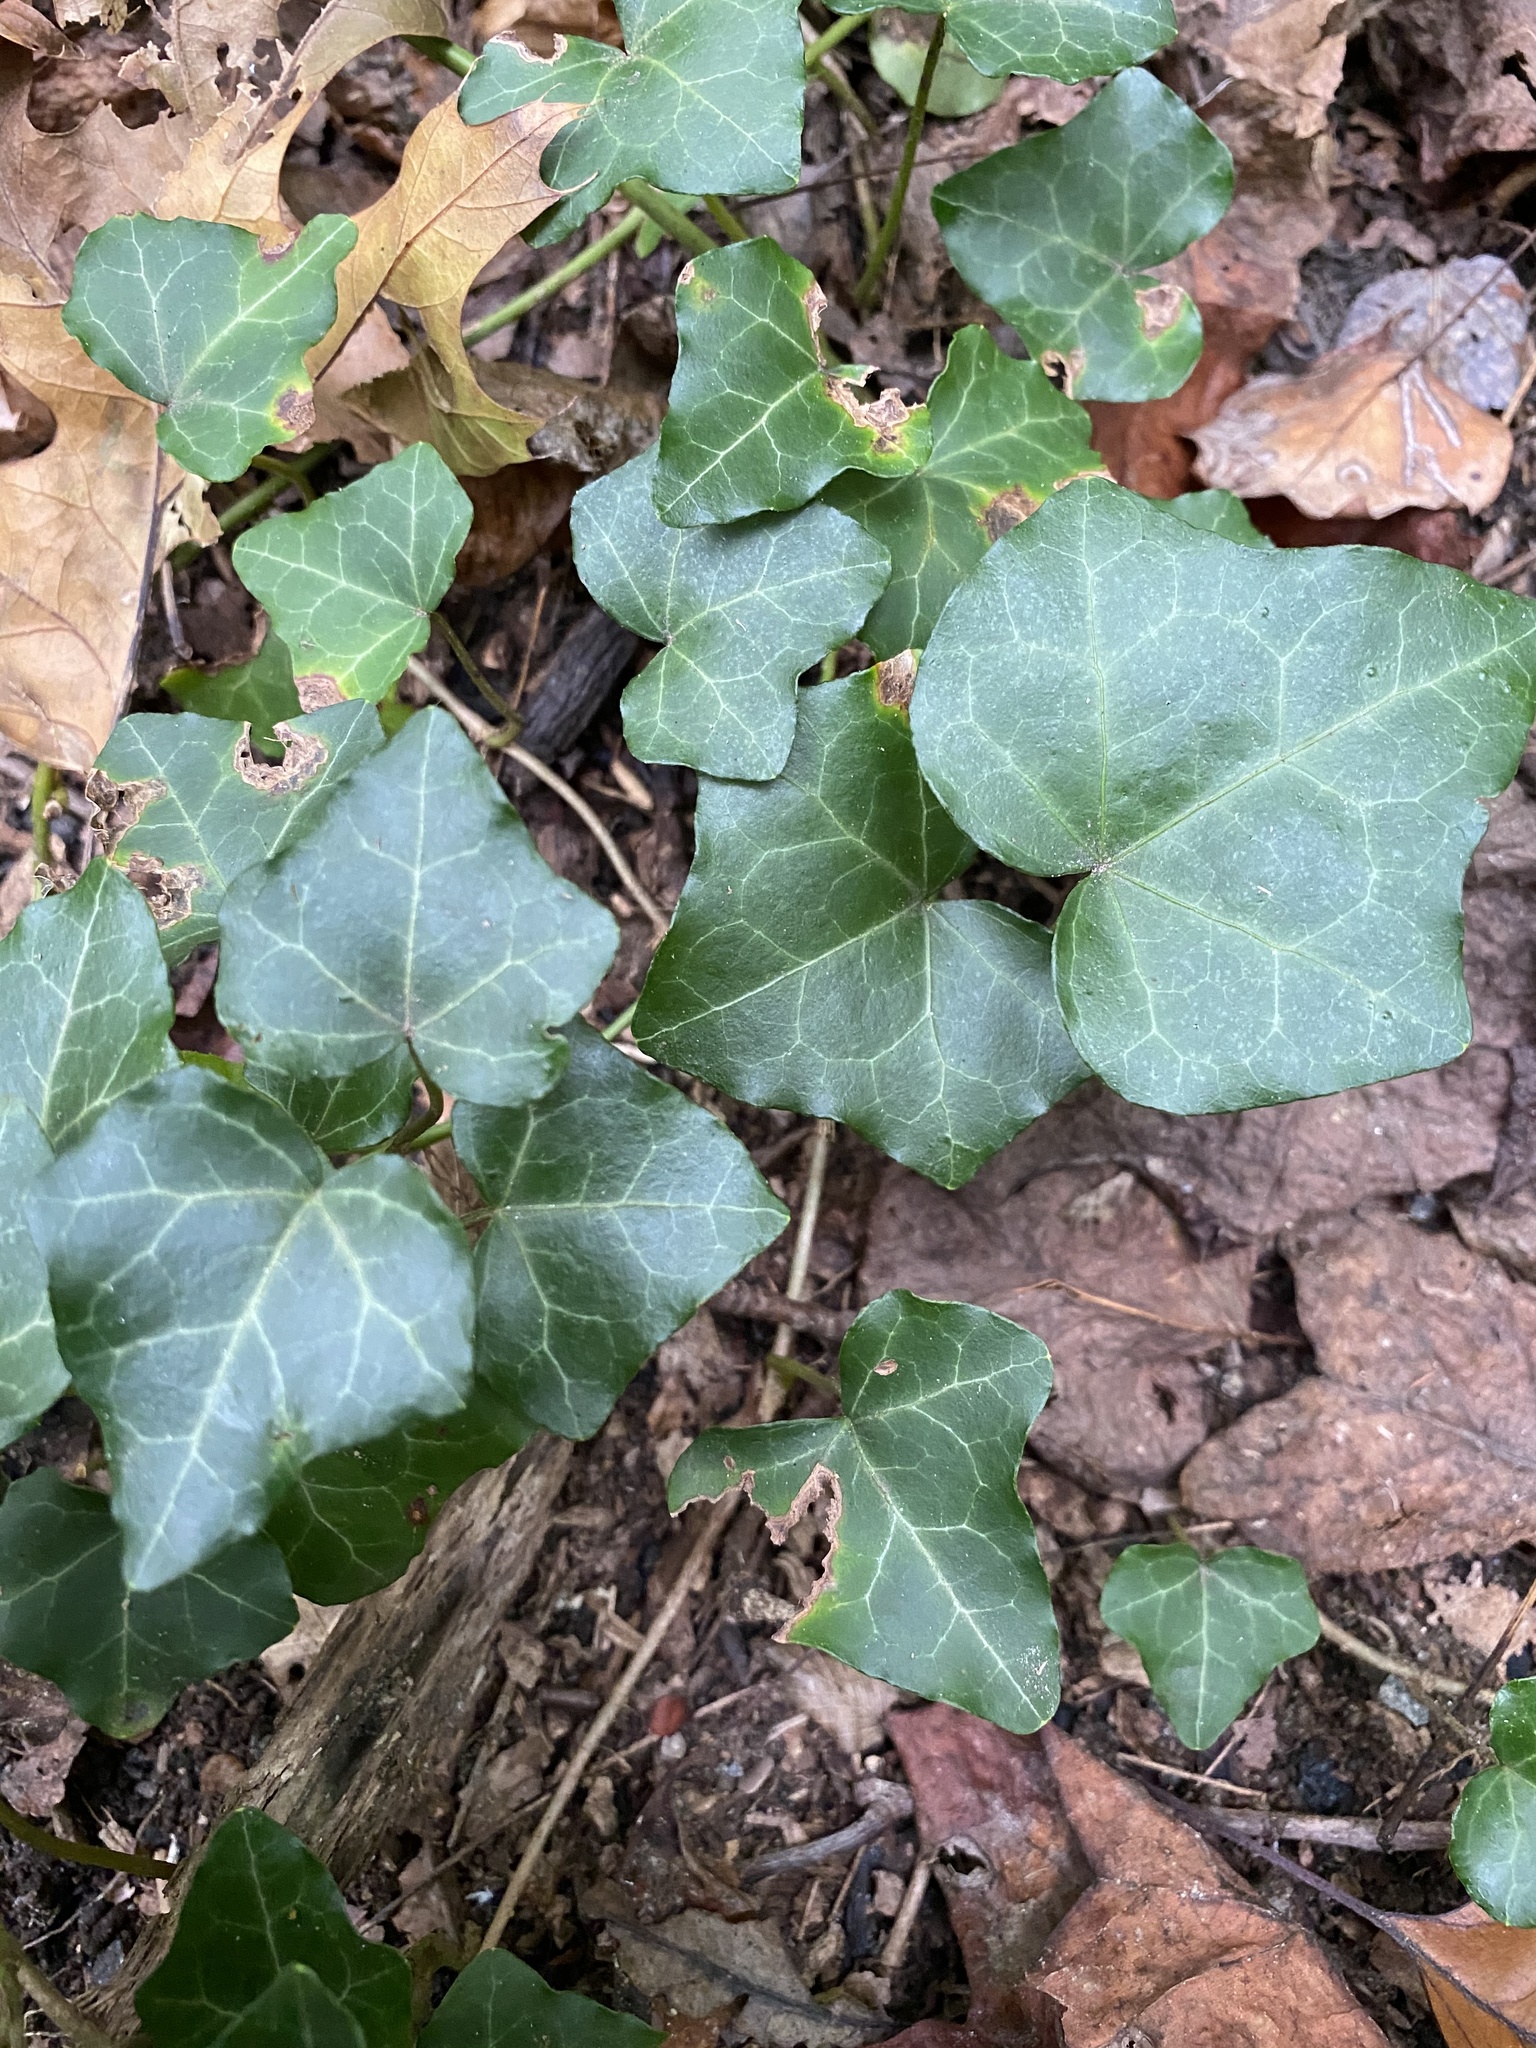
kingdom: Plantae
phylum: Tracheophyta
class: Magnoliopsida
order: Apiales
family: Araliaceae
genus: Hedera
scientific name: Hedera helix
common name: Ivy
